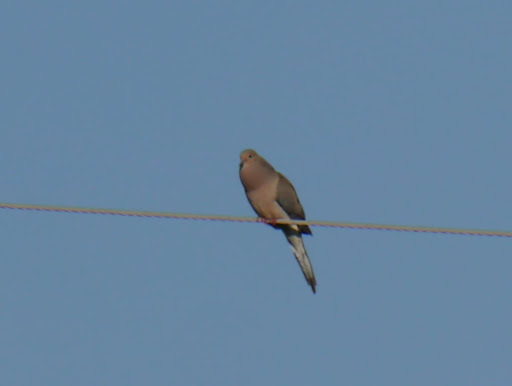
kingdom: Animalia
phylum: Chordata
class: Aves
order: Columbiformes
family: Columbidae
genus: Zenaida
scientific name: Zenaida macroura
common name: Mourning dove
